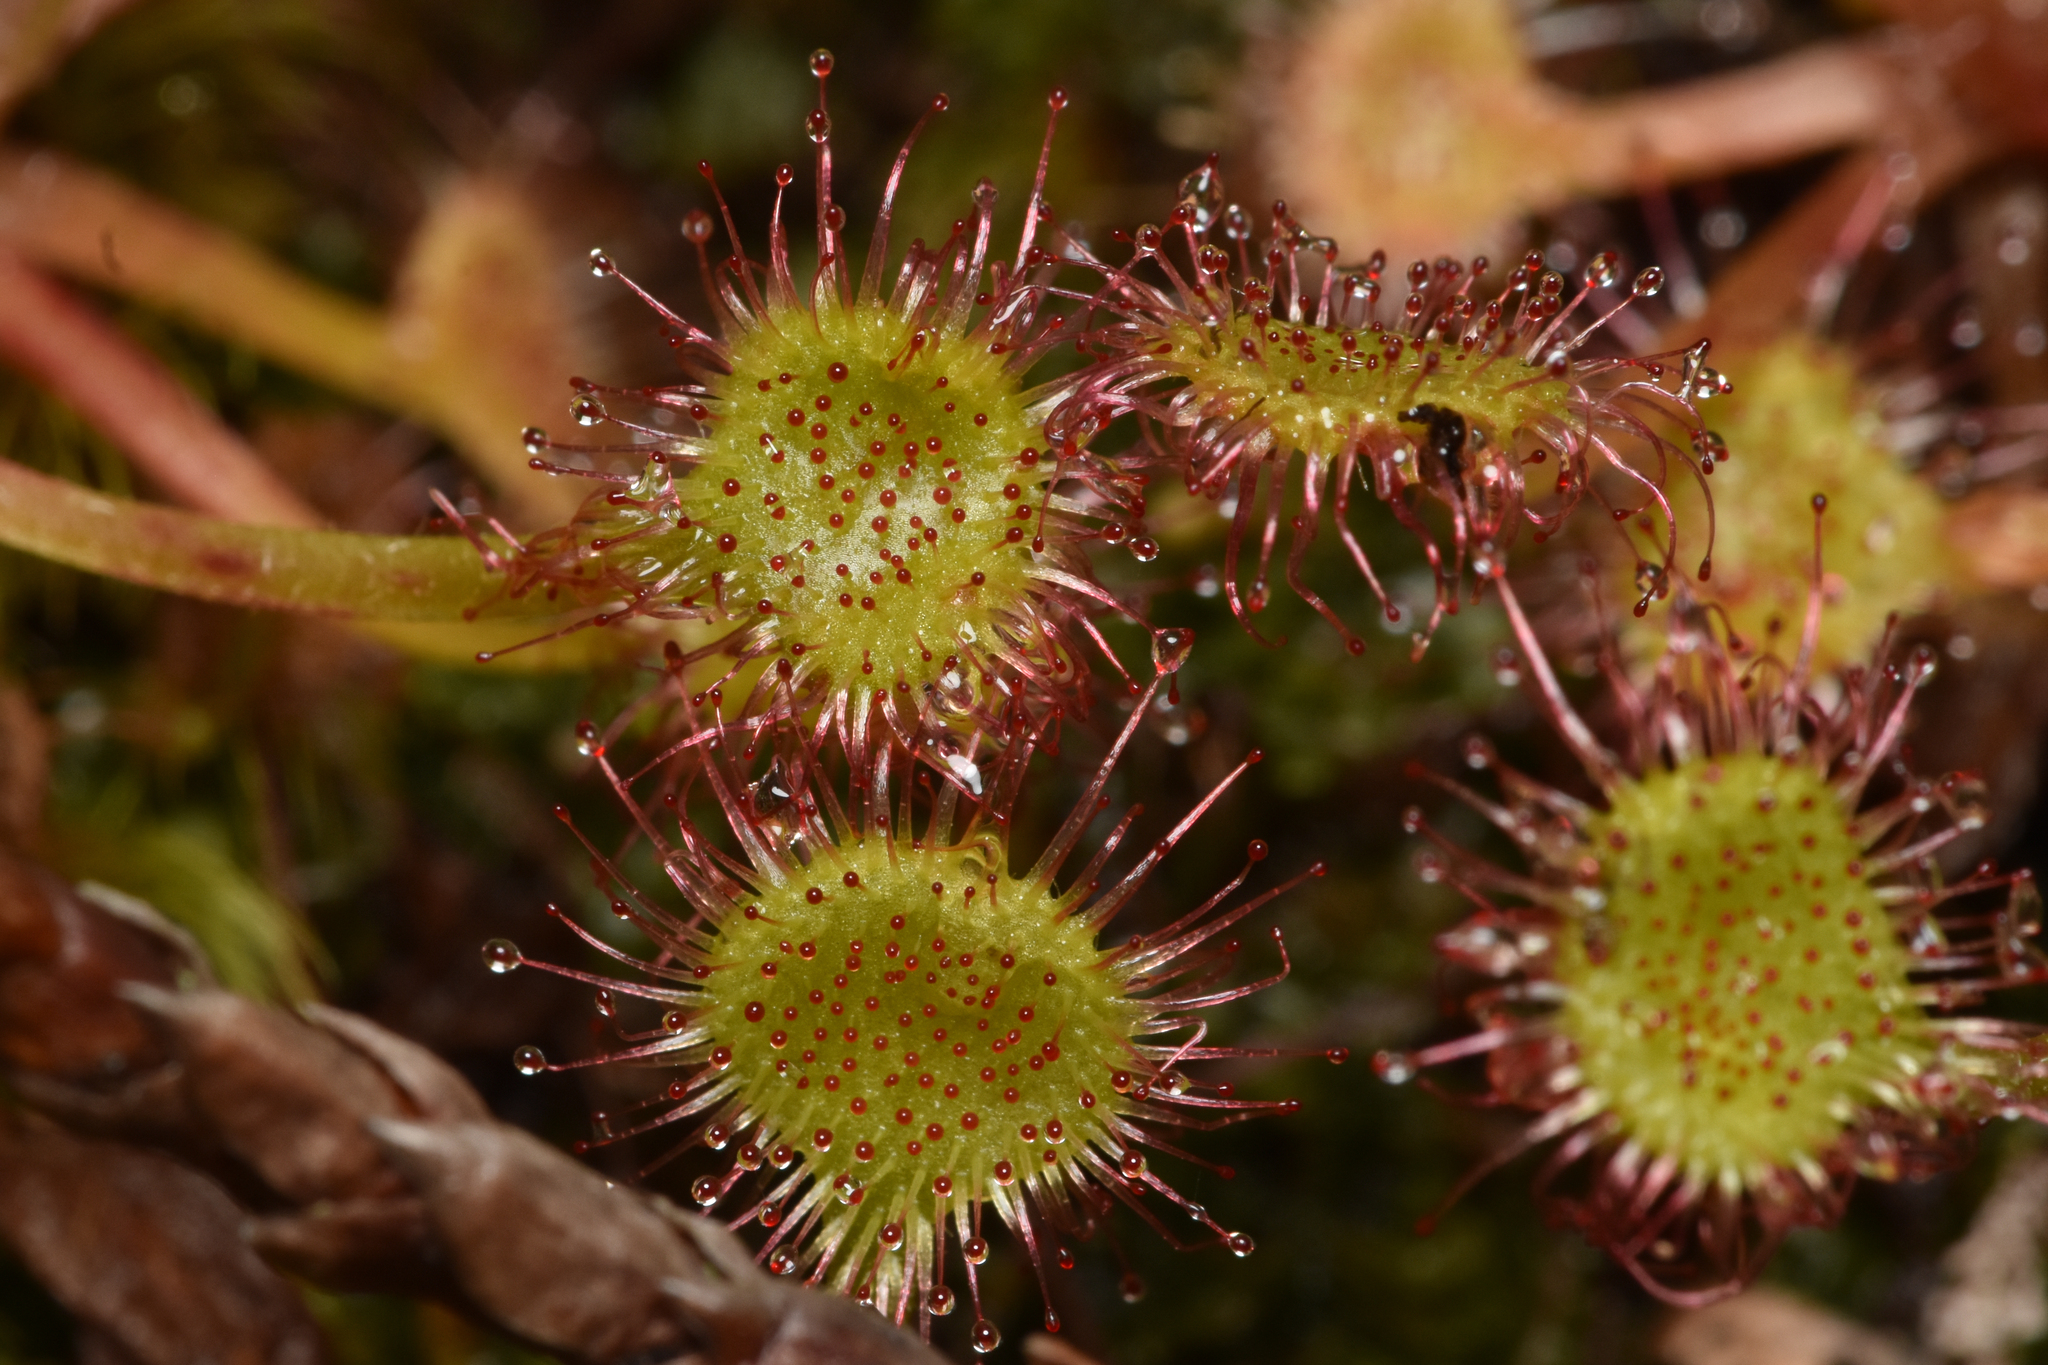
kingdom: Plantae
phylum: Tracheophyta
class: Magnoliopsida
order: Caryophyllales
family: Droseraceae
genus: Drosera
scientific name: Drosera rotundifolia
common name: Round-leaved sundew
